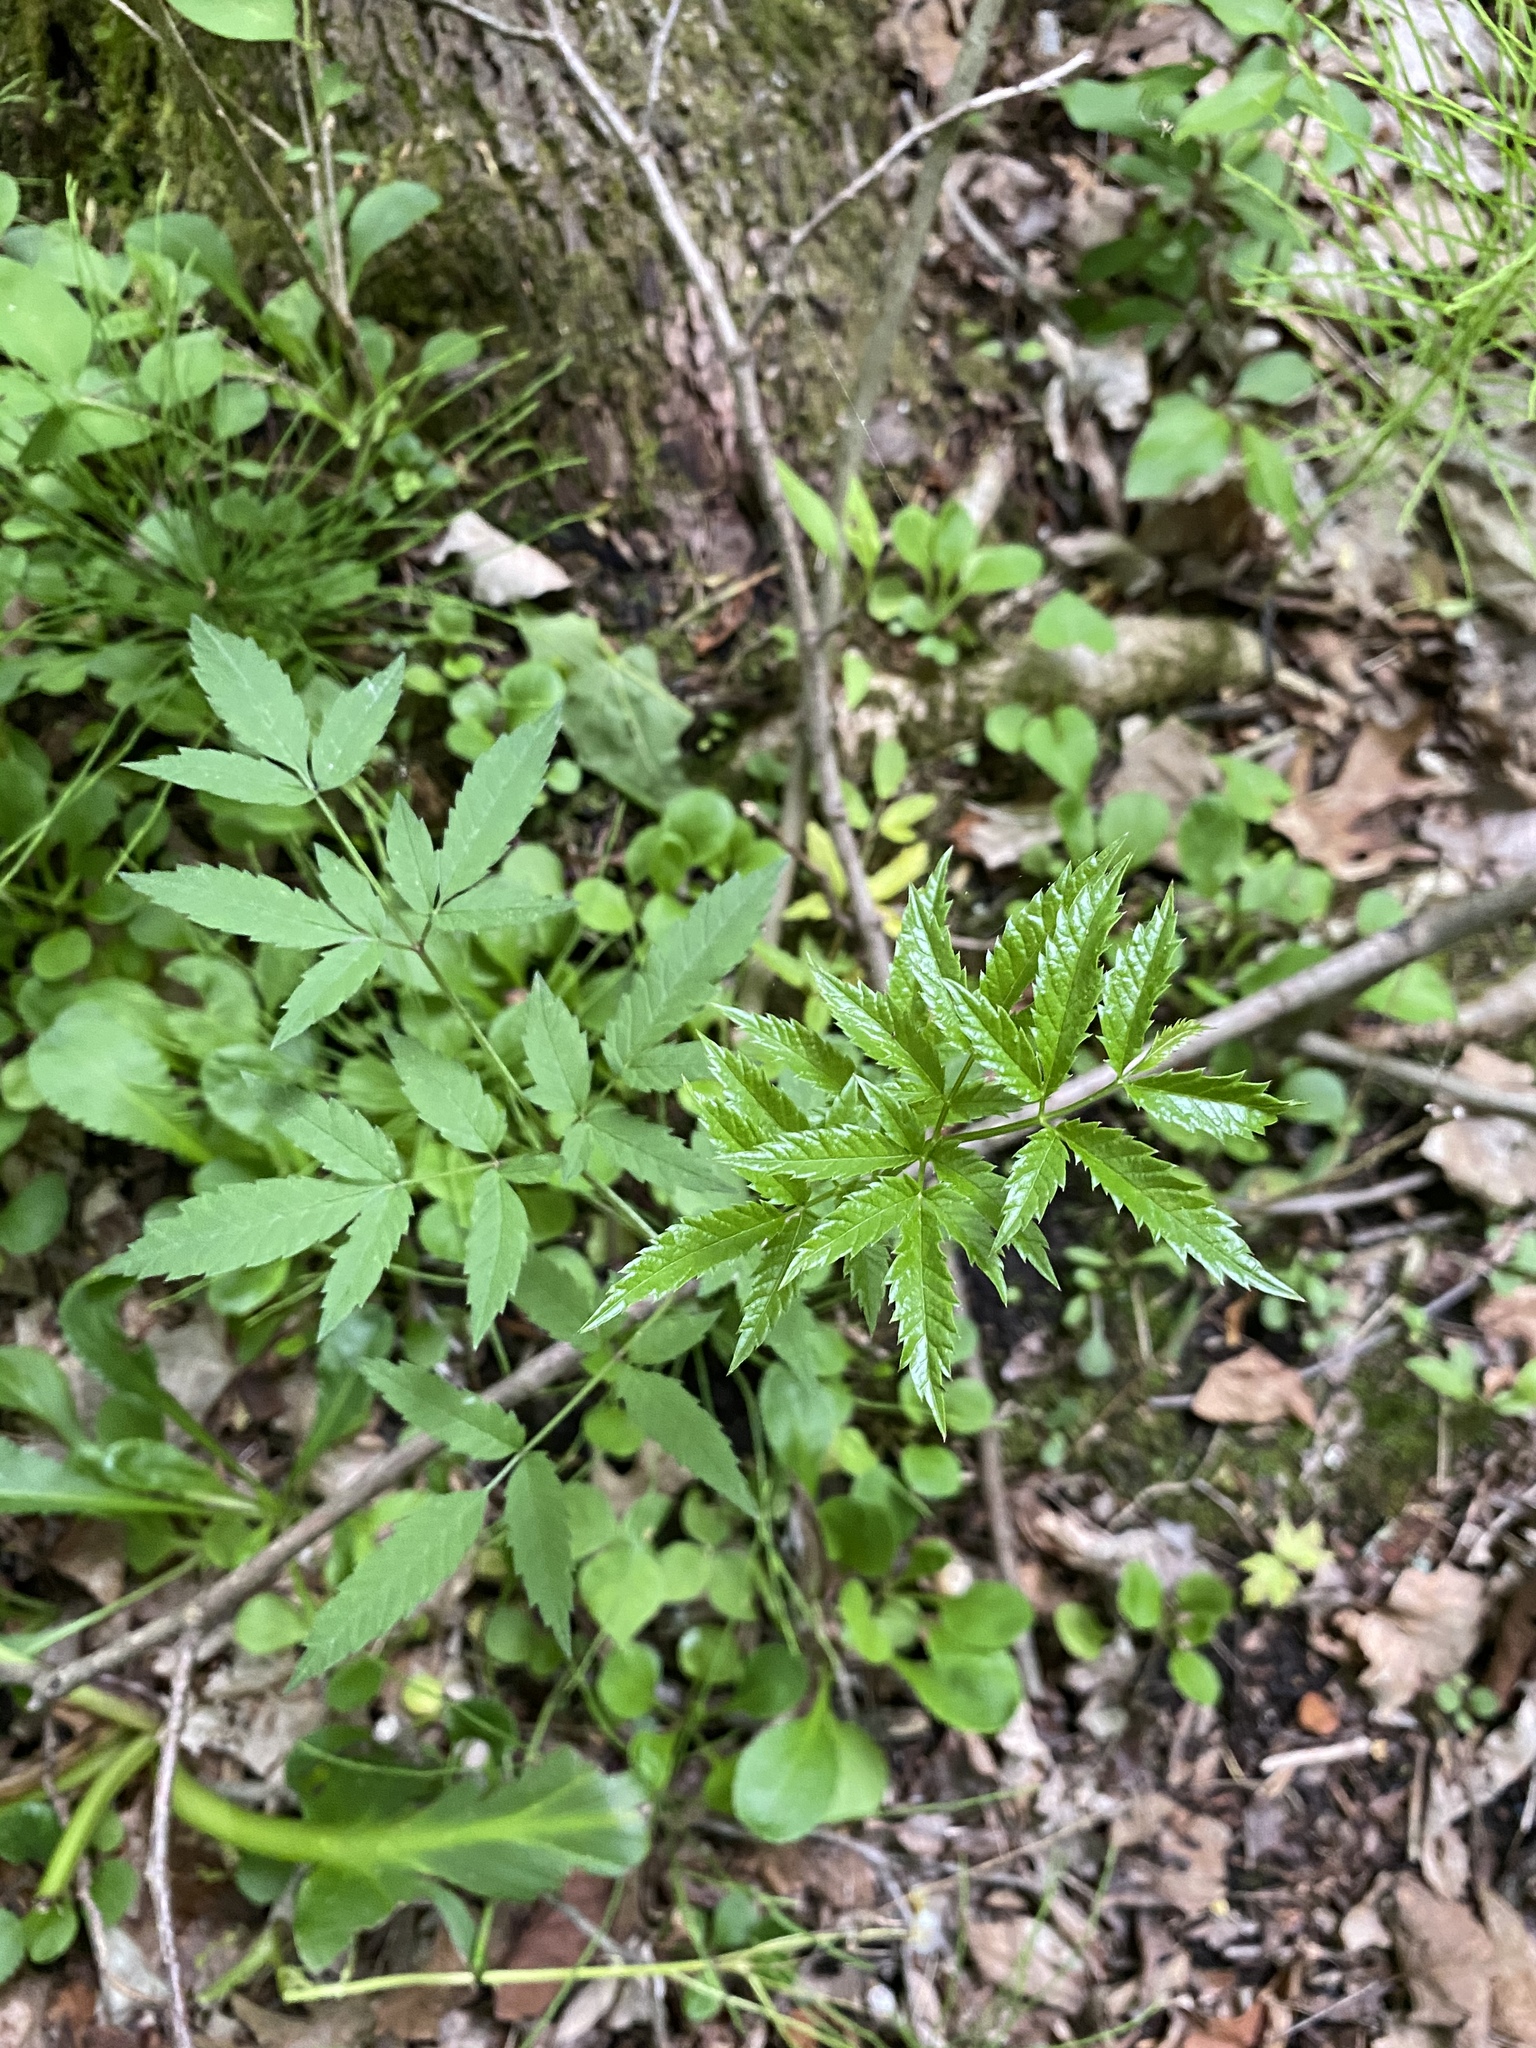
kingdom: Plantae
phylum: Tracheophyta
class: Magnoliopsida
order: Apiales
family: Apiaceae
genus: Cicuta
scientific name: Cicuta maculata
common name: Spotted cowbane
